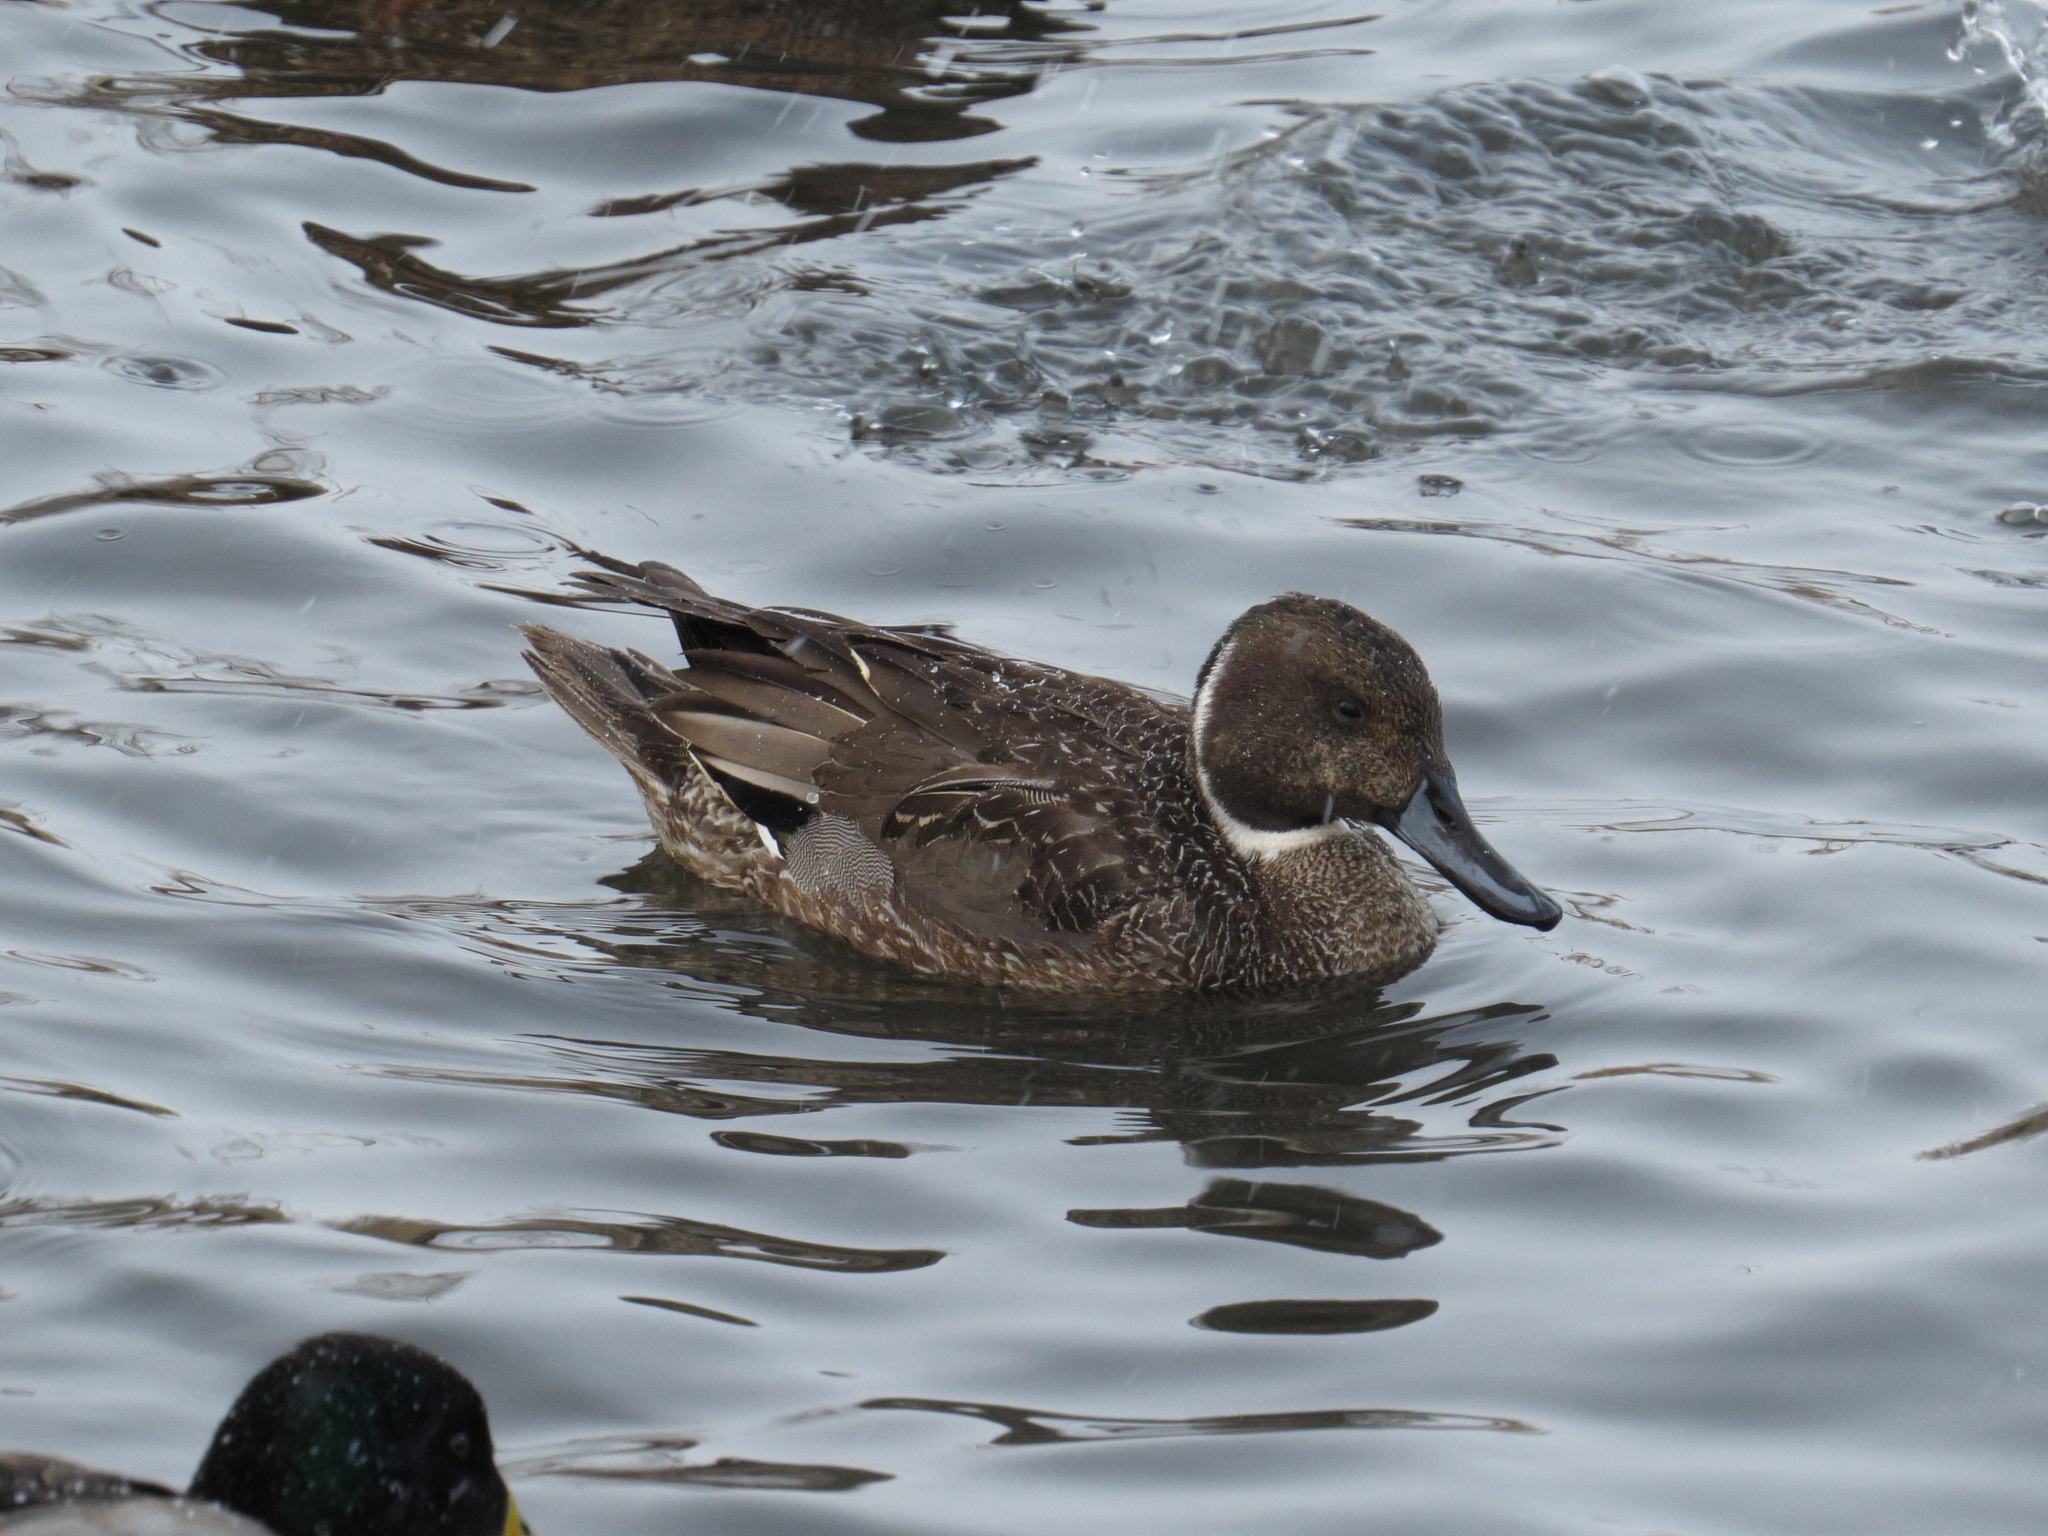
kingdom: Animalia
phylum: Chordata
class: Aves
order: Anseriformes
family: Anatidae
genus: Anas
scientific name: Anas acuta
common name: Northern pintail
